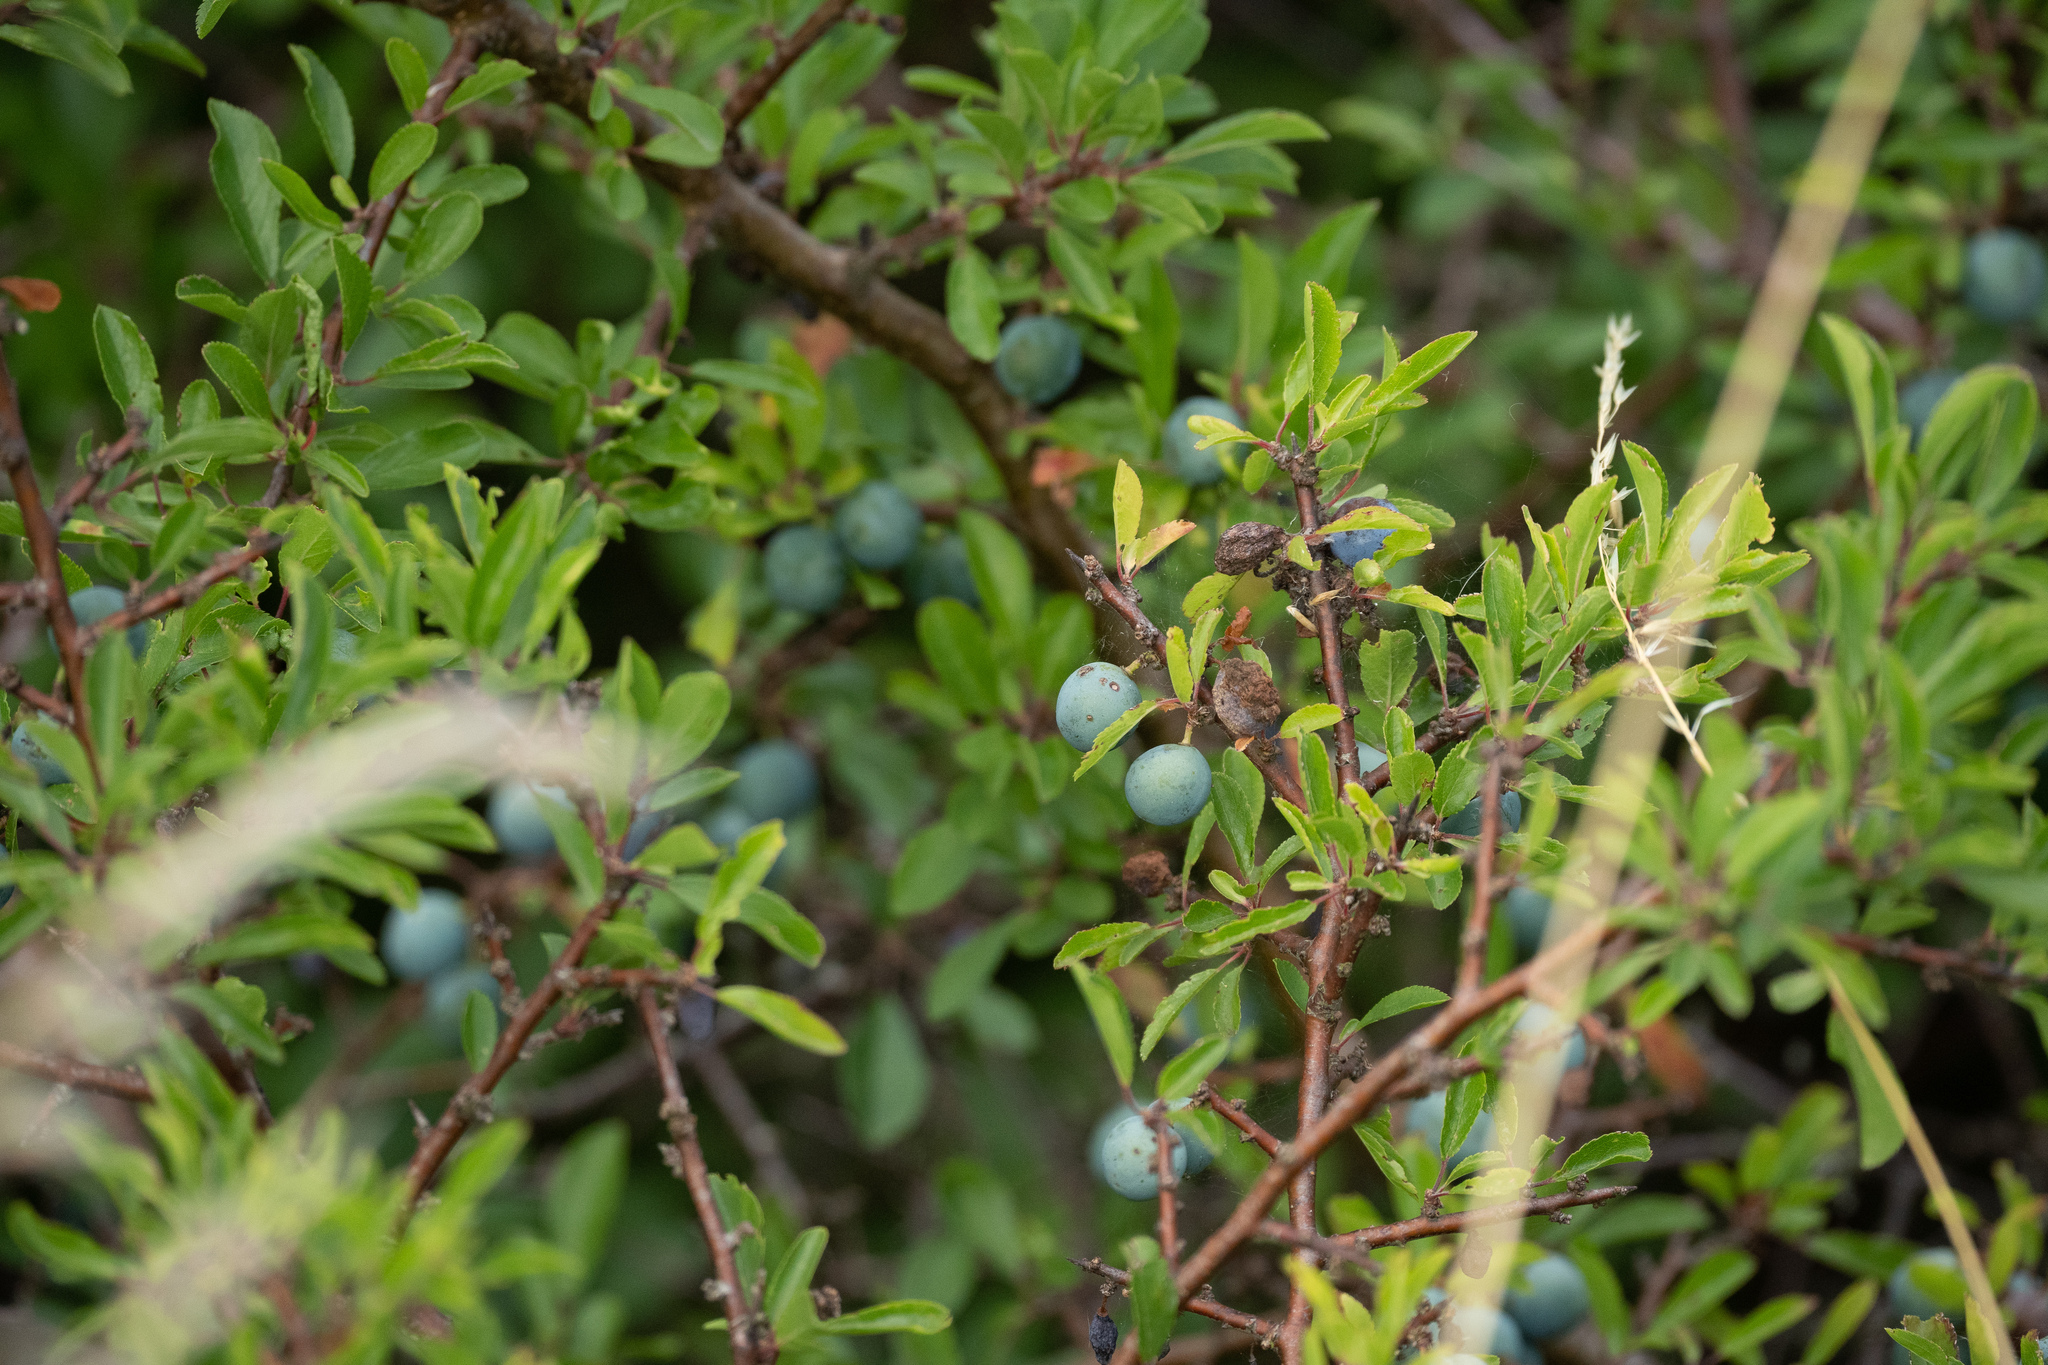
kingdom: Plantae
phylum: Tracheophyta
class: Magnoliopsida
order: Rosales
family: Rosaceae
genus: Prunus
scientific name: Prunus spinosa
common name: Blackthorn
